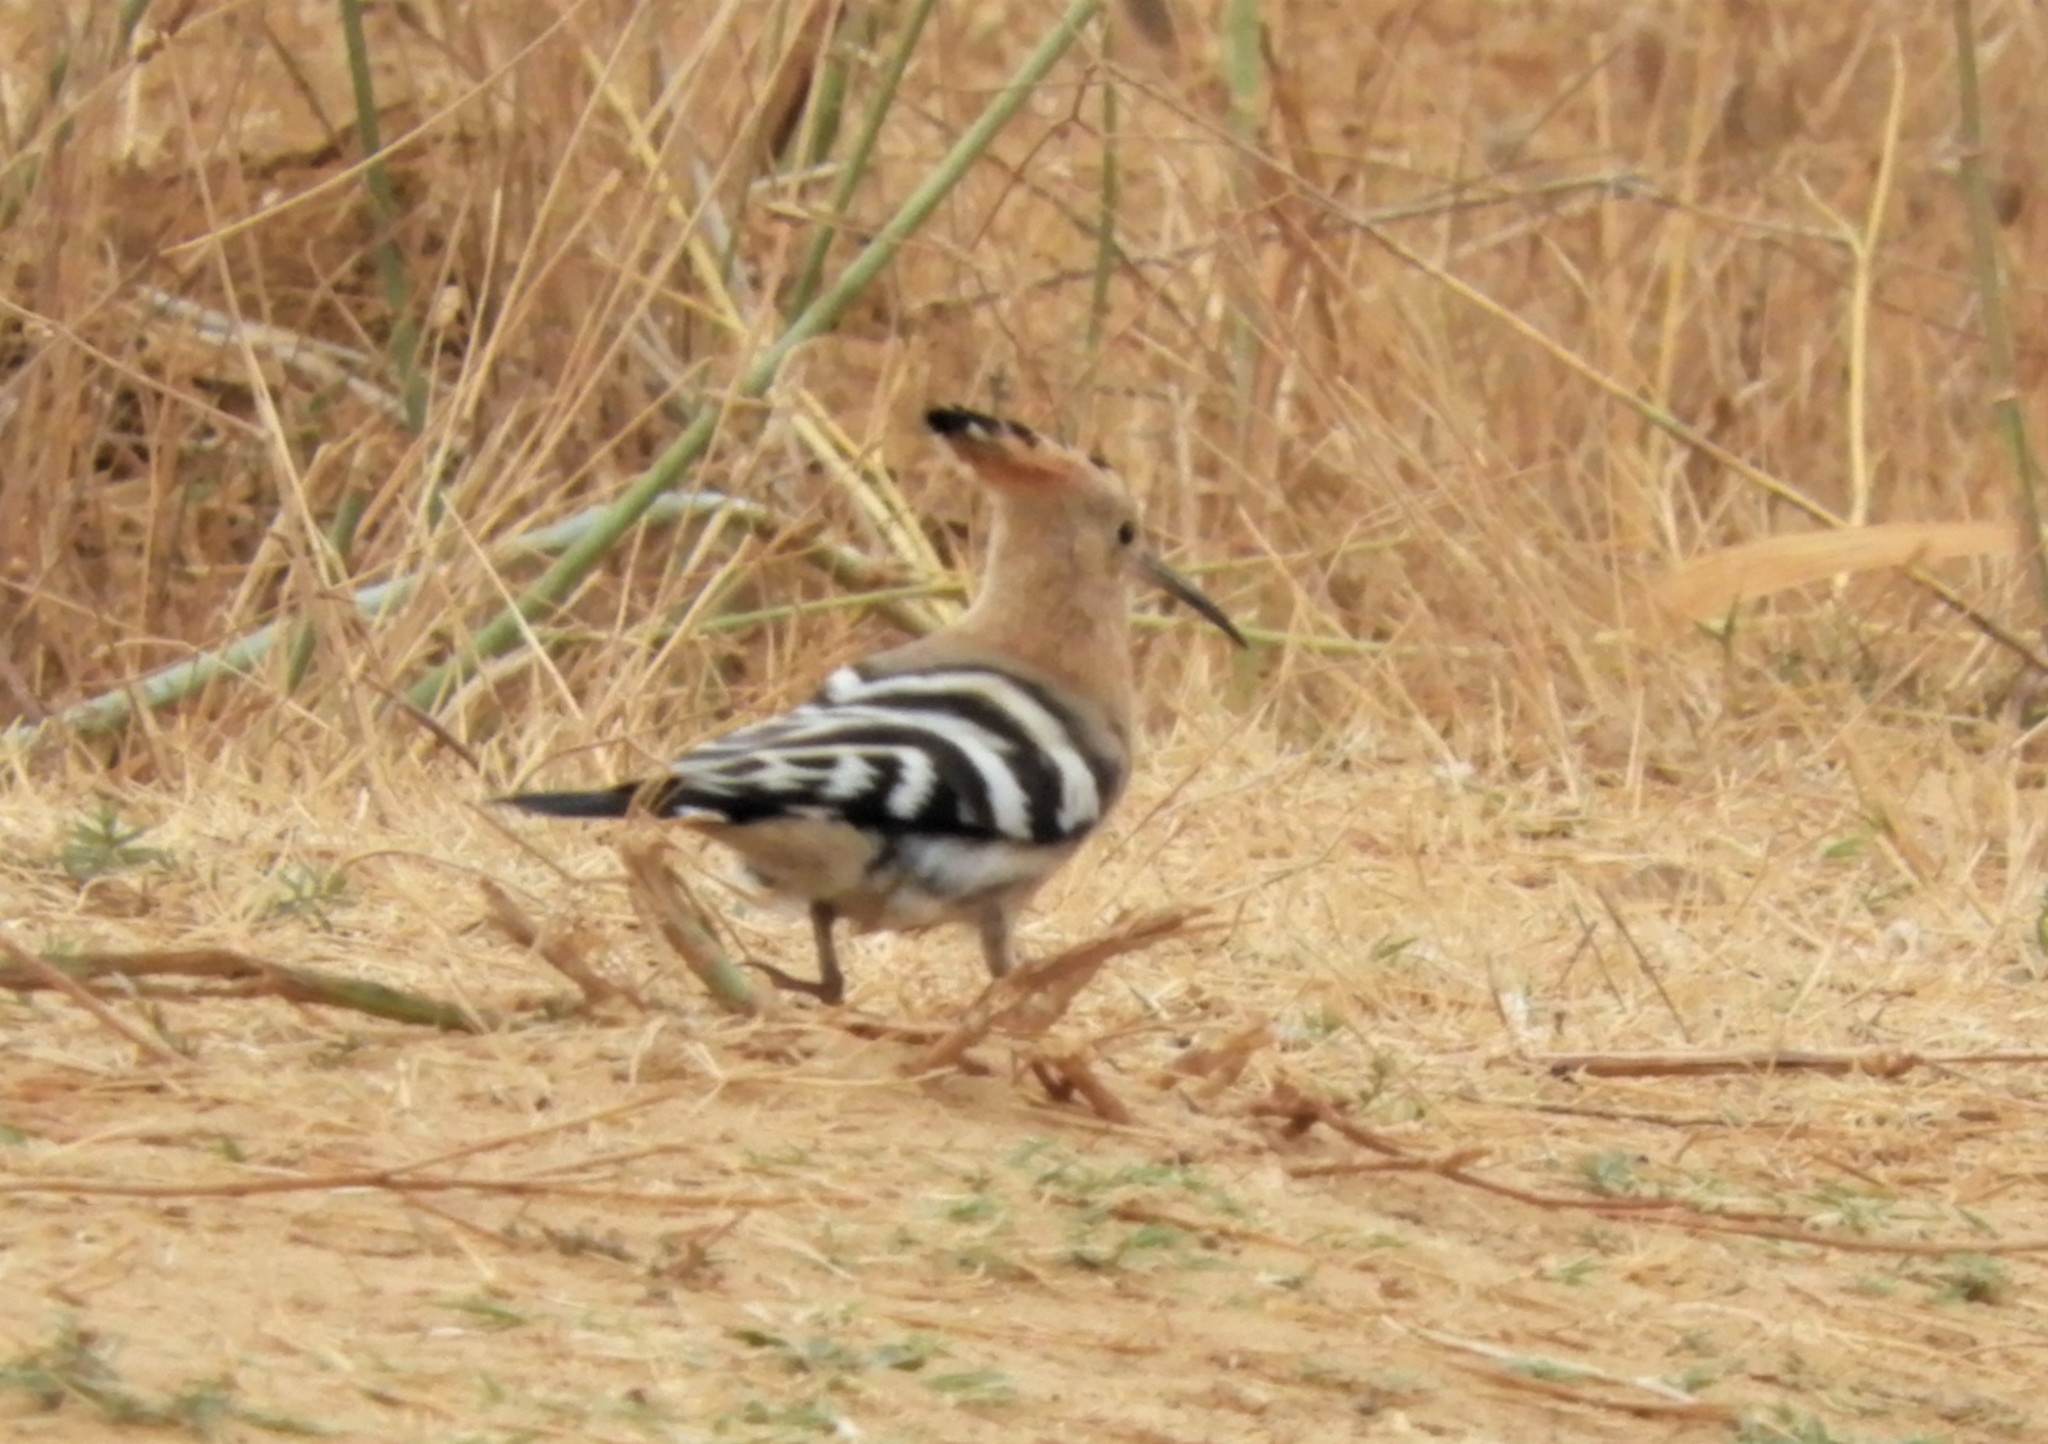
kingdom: Animalia
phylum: Chordata
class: Aves
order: Bucerotiformes
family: Upupidae
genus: Upupa
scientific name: Upupa epops
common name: Eurasian hoopoe
